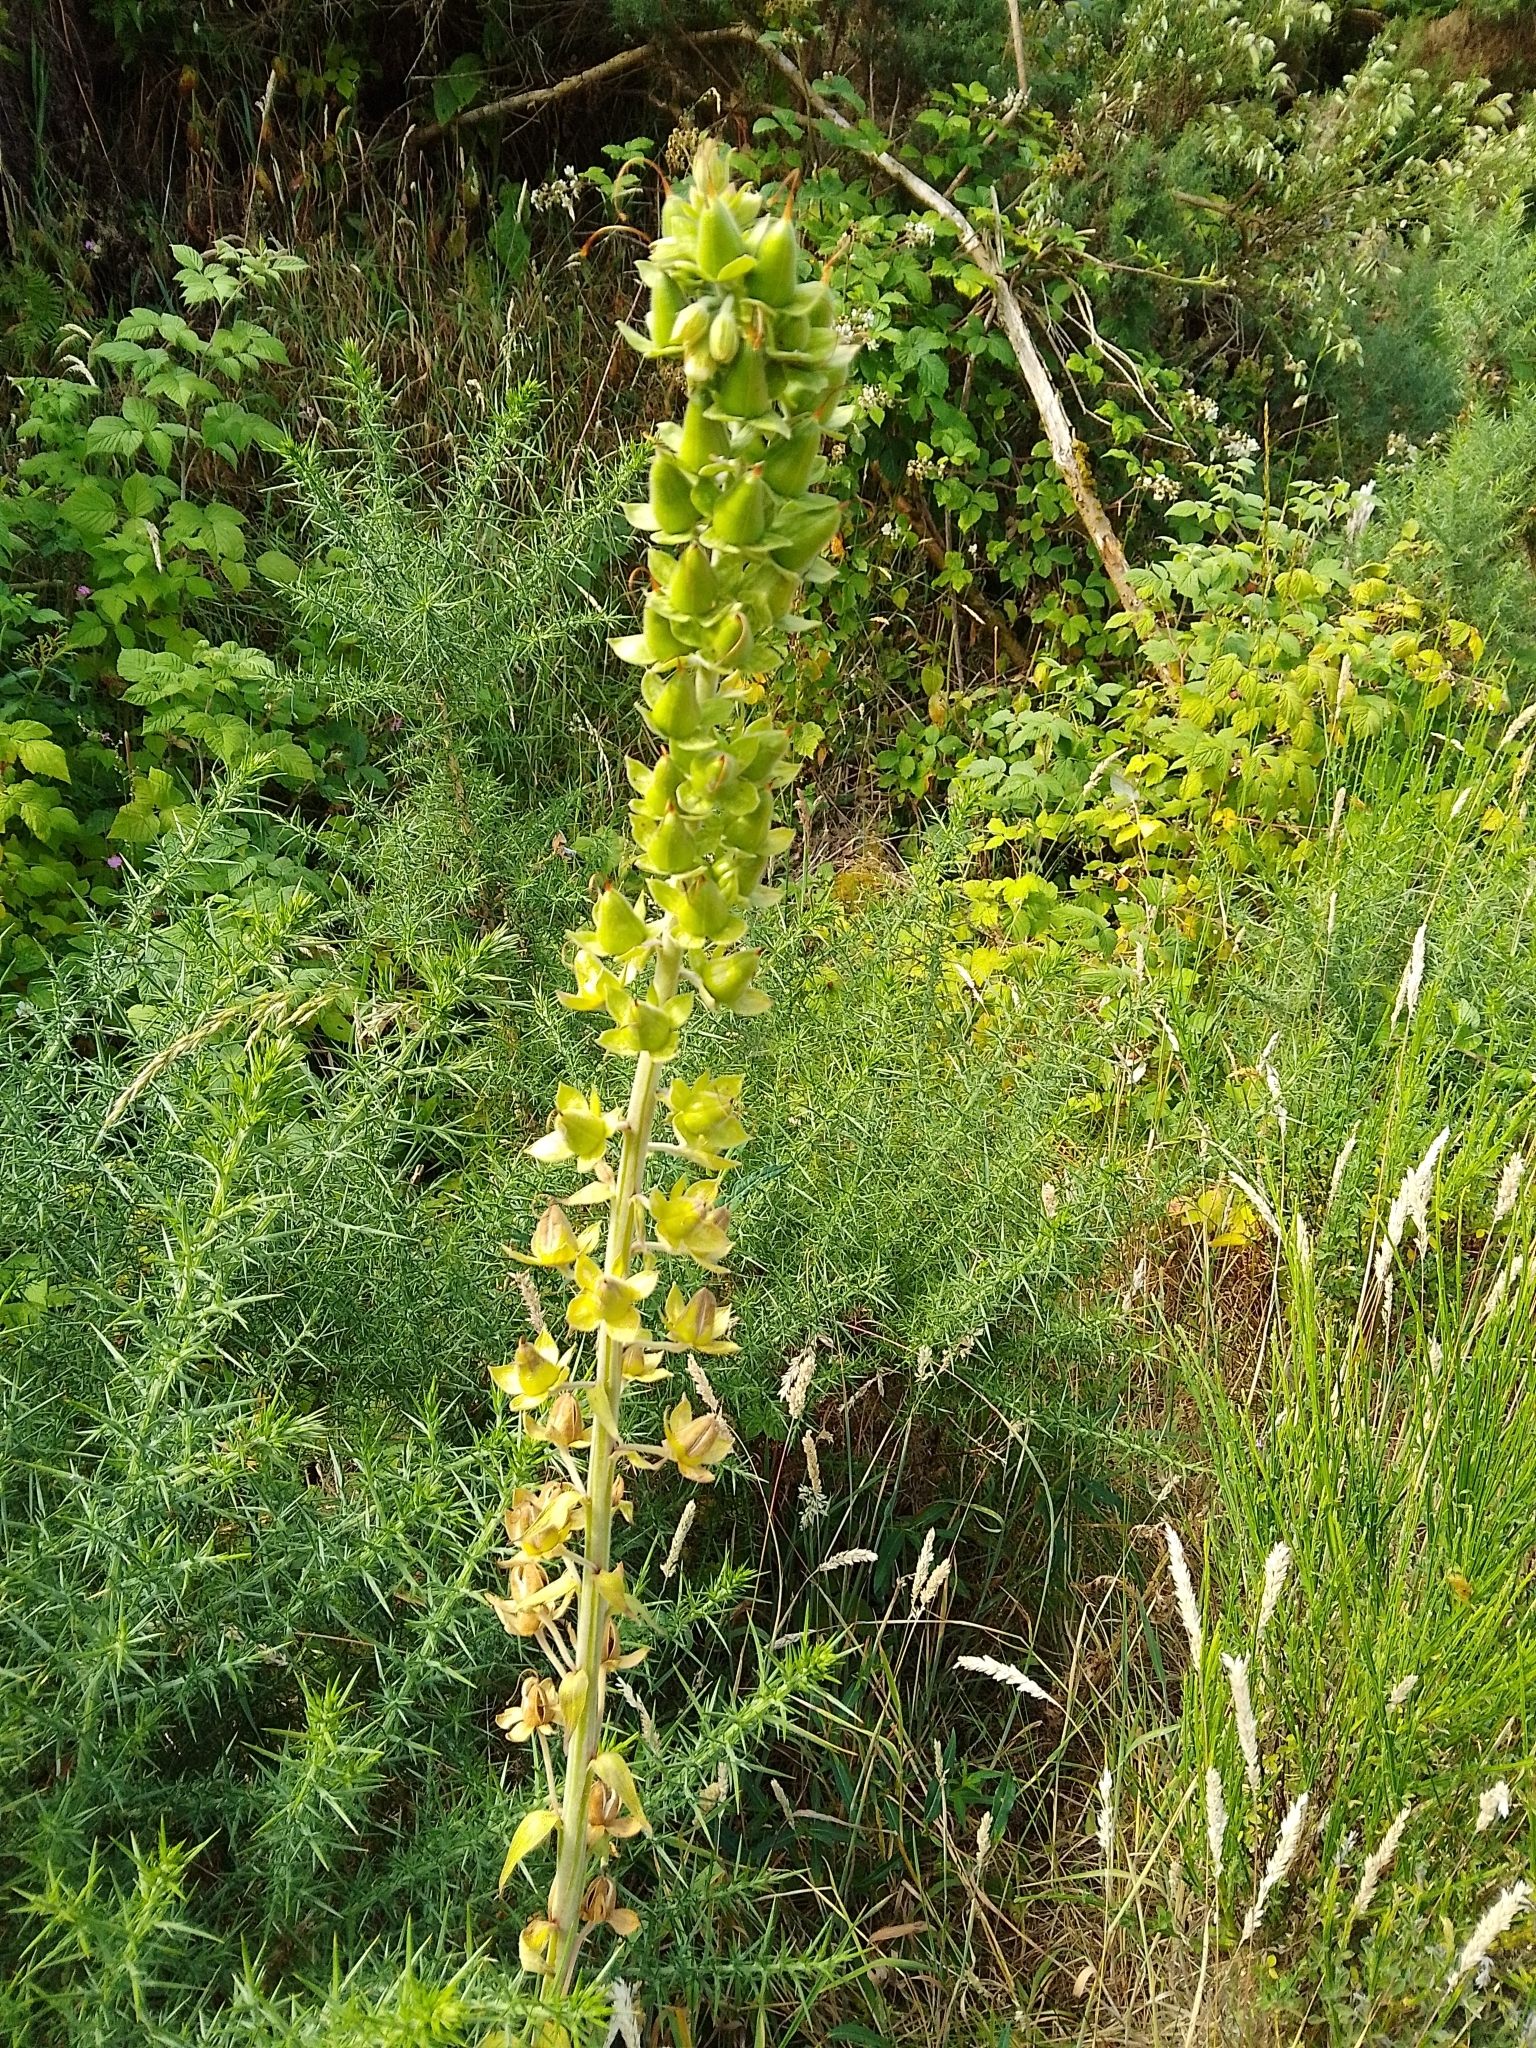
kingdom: Plantae
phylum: Tracheophyta
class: Magnoliopsida
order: Lamiales
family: Plantaginaceae
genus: Digitalis
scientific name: Digitalis purpurea
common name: Foxglove
